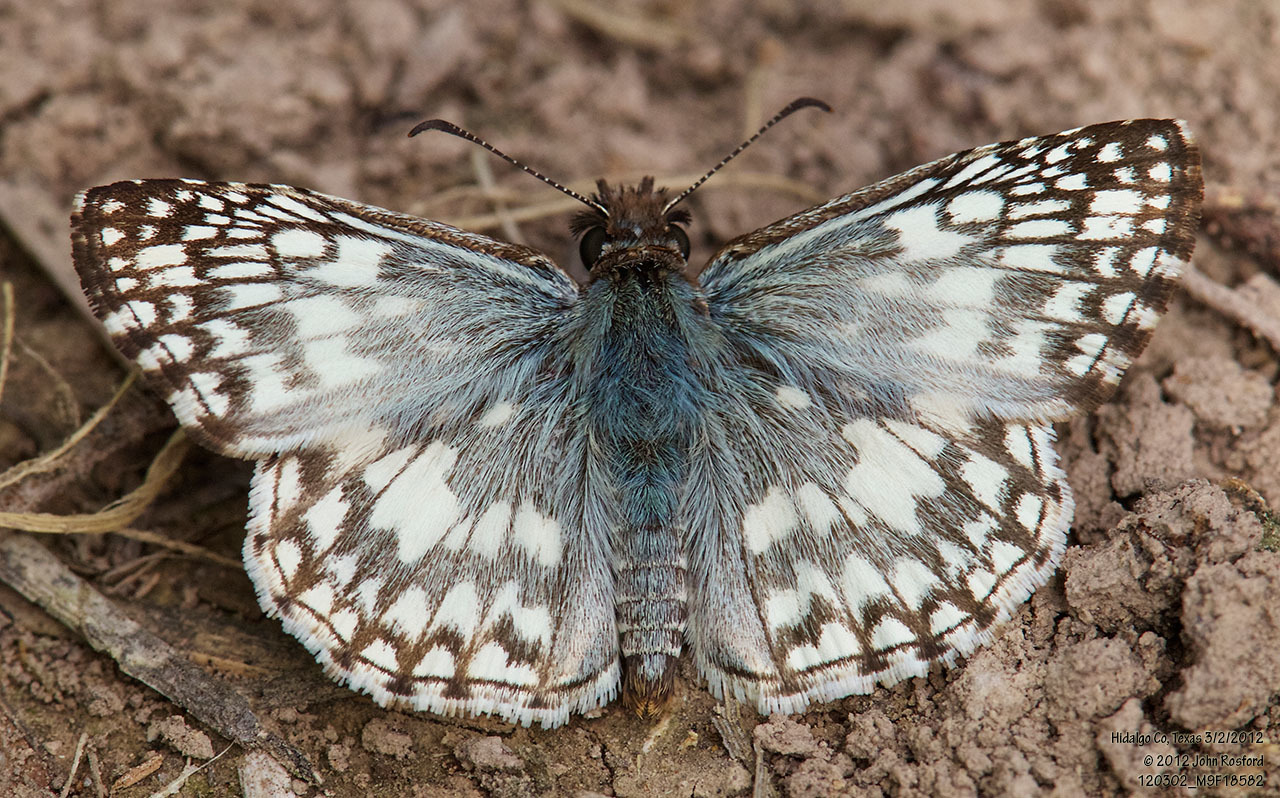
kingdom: Animalia
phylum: Arthropoda
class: Insecta
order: Lepidoptera
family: Hesperiidae
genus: Pyrgus
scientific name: Pyrgus oileus
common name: Tropical checkered-skipper
